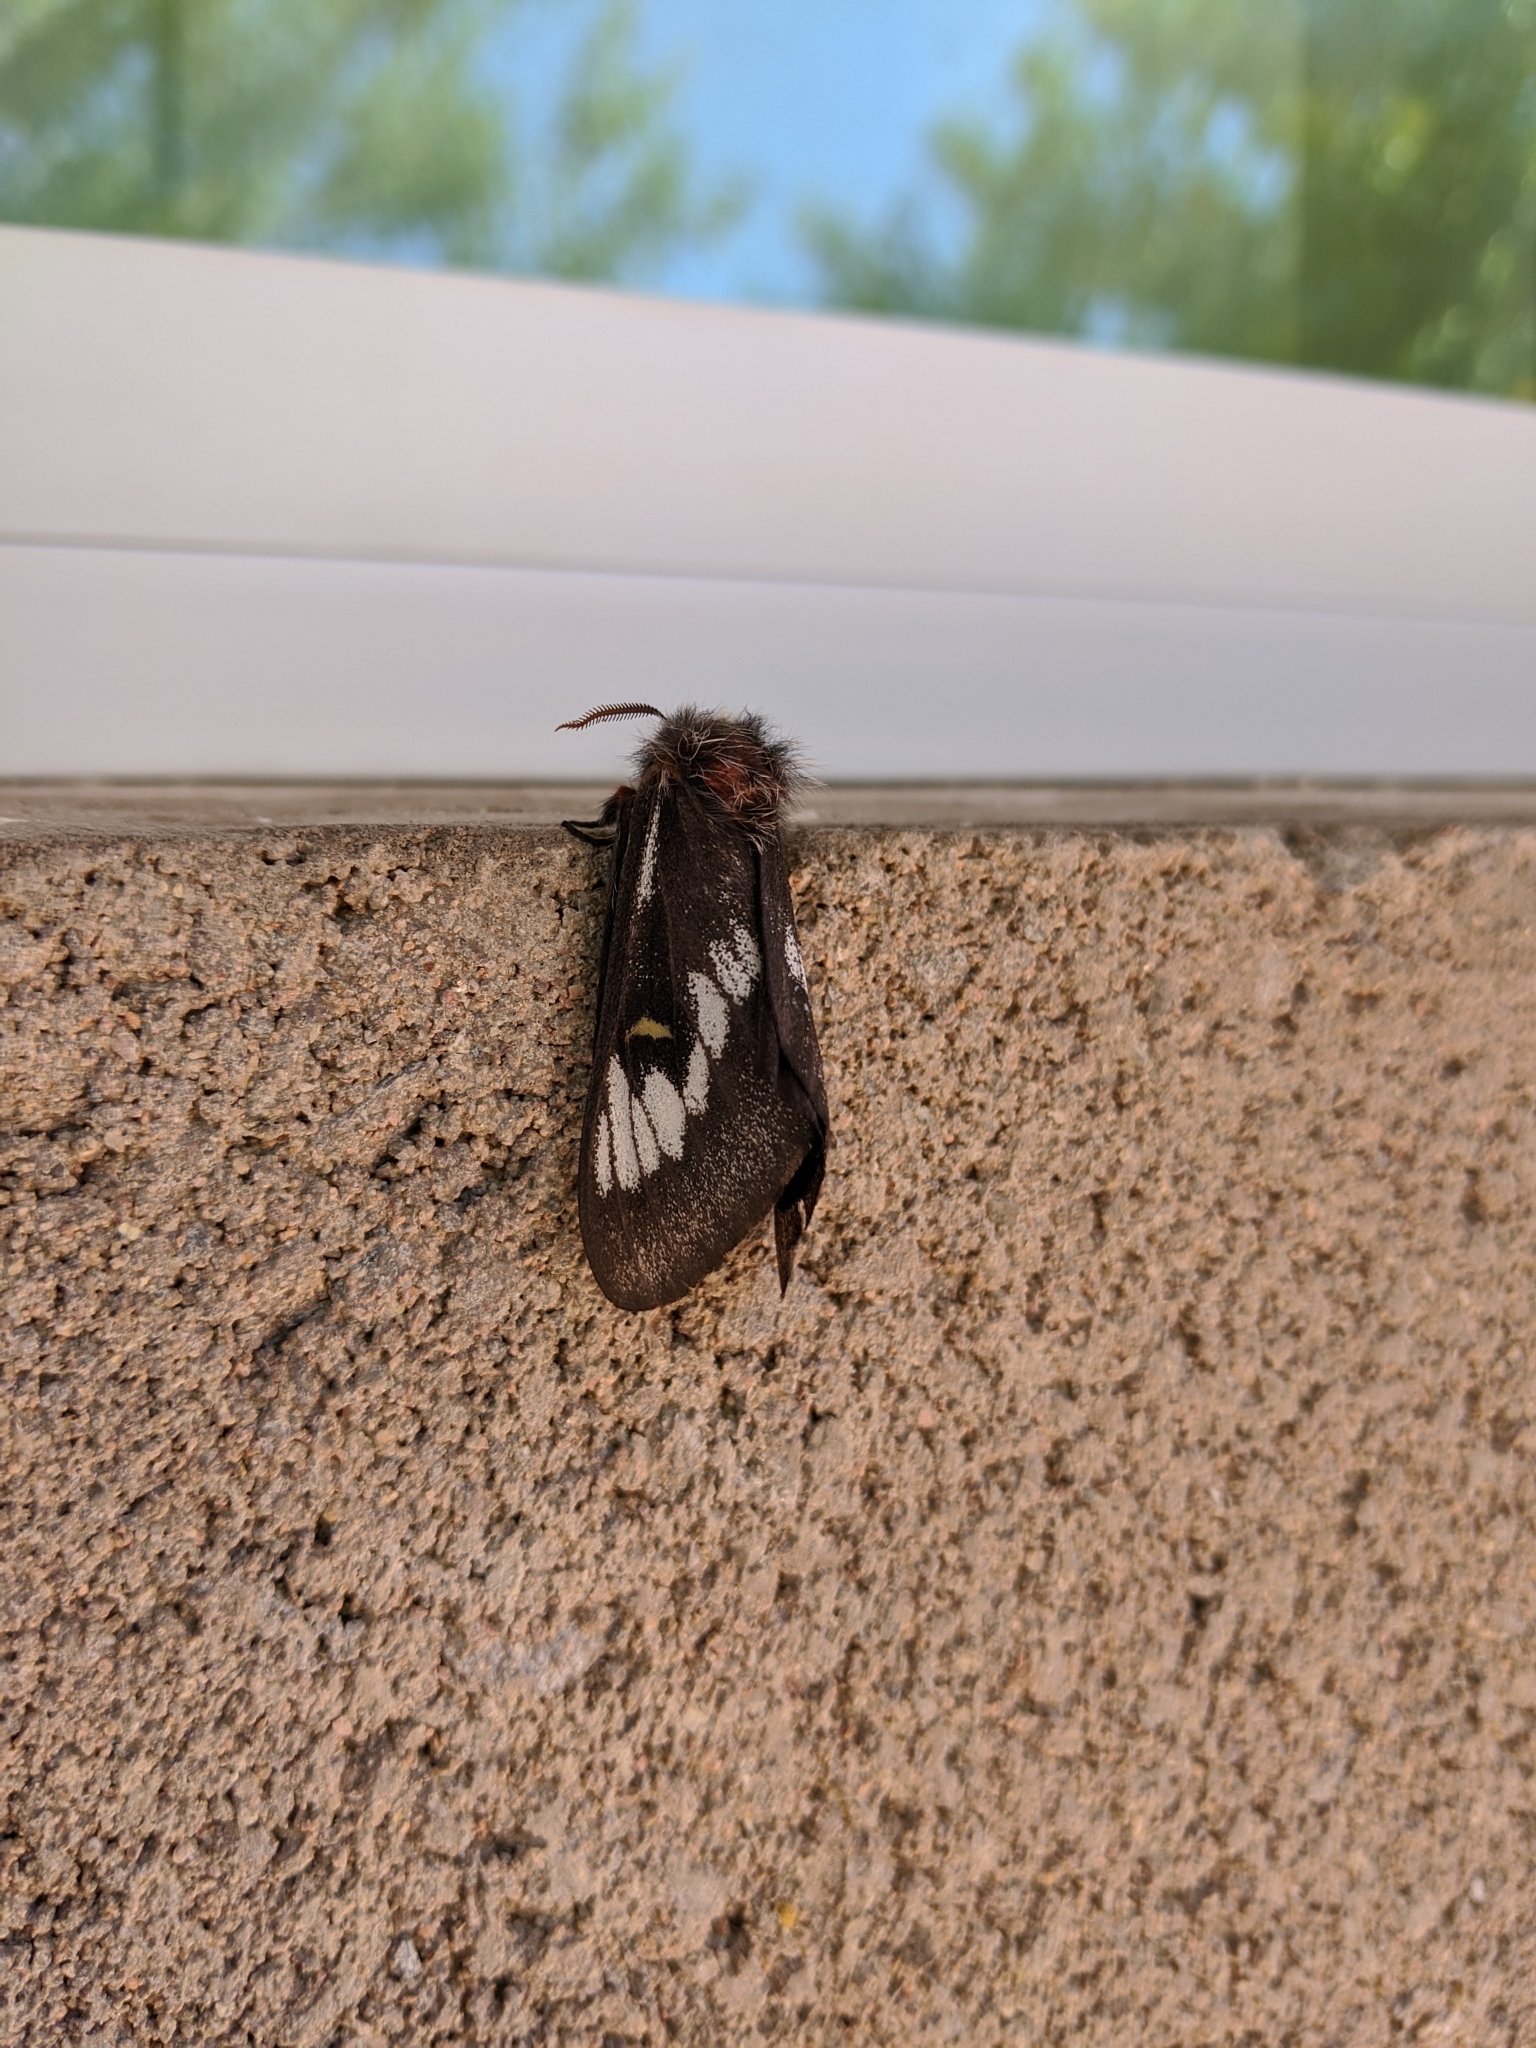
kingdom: Animalia
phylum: Arthropoda
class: Insecta
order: Lepidoptera
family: Saturniidae
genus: Hemileuca
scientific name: Hemileuca juno
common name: Juno buckmoth
